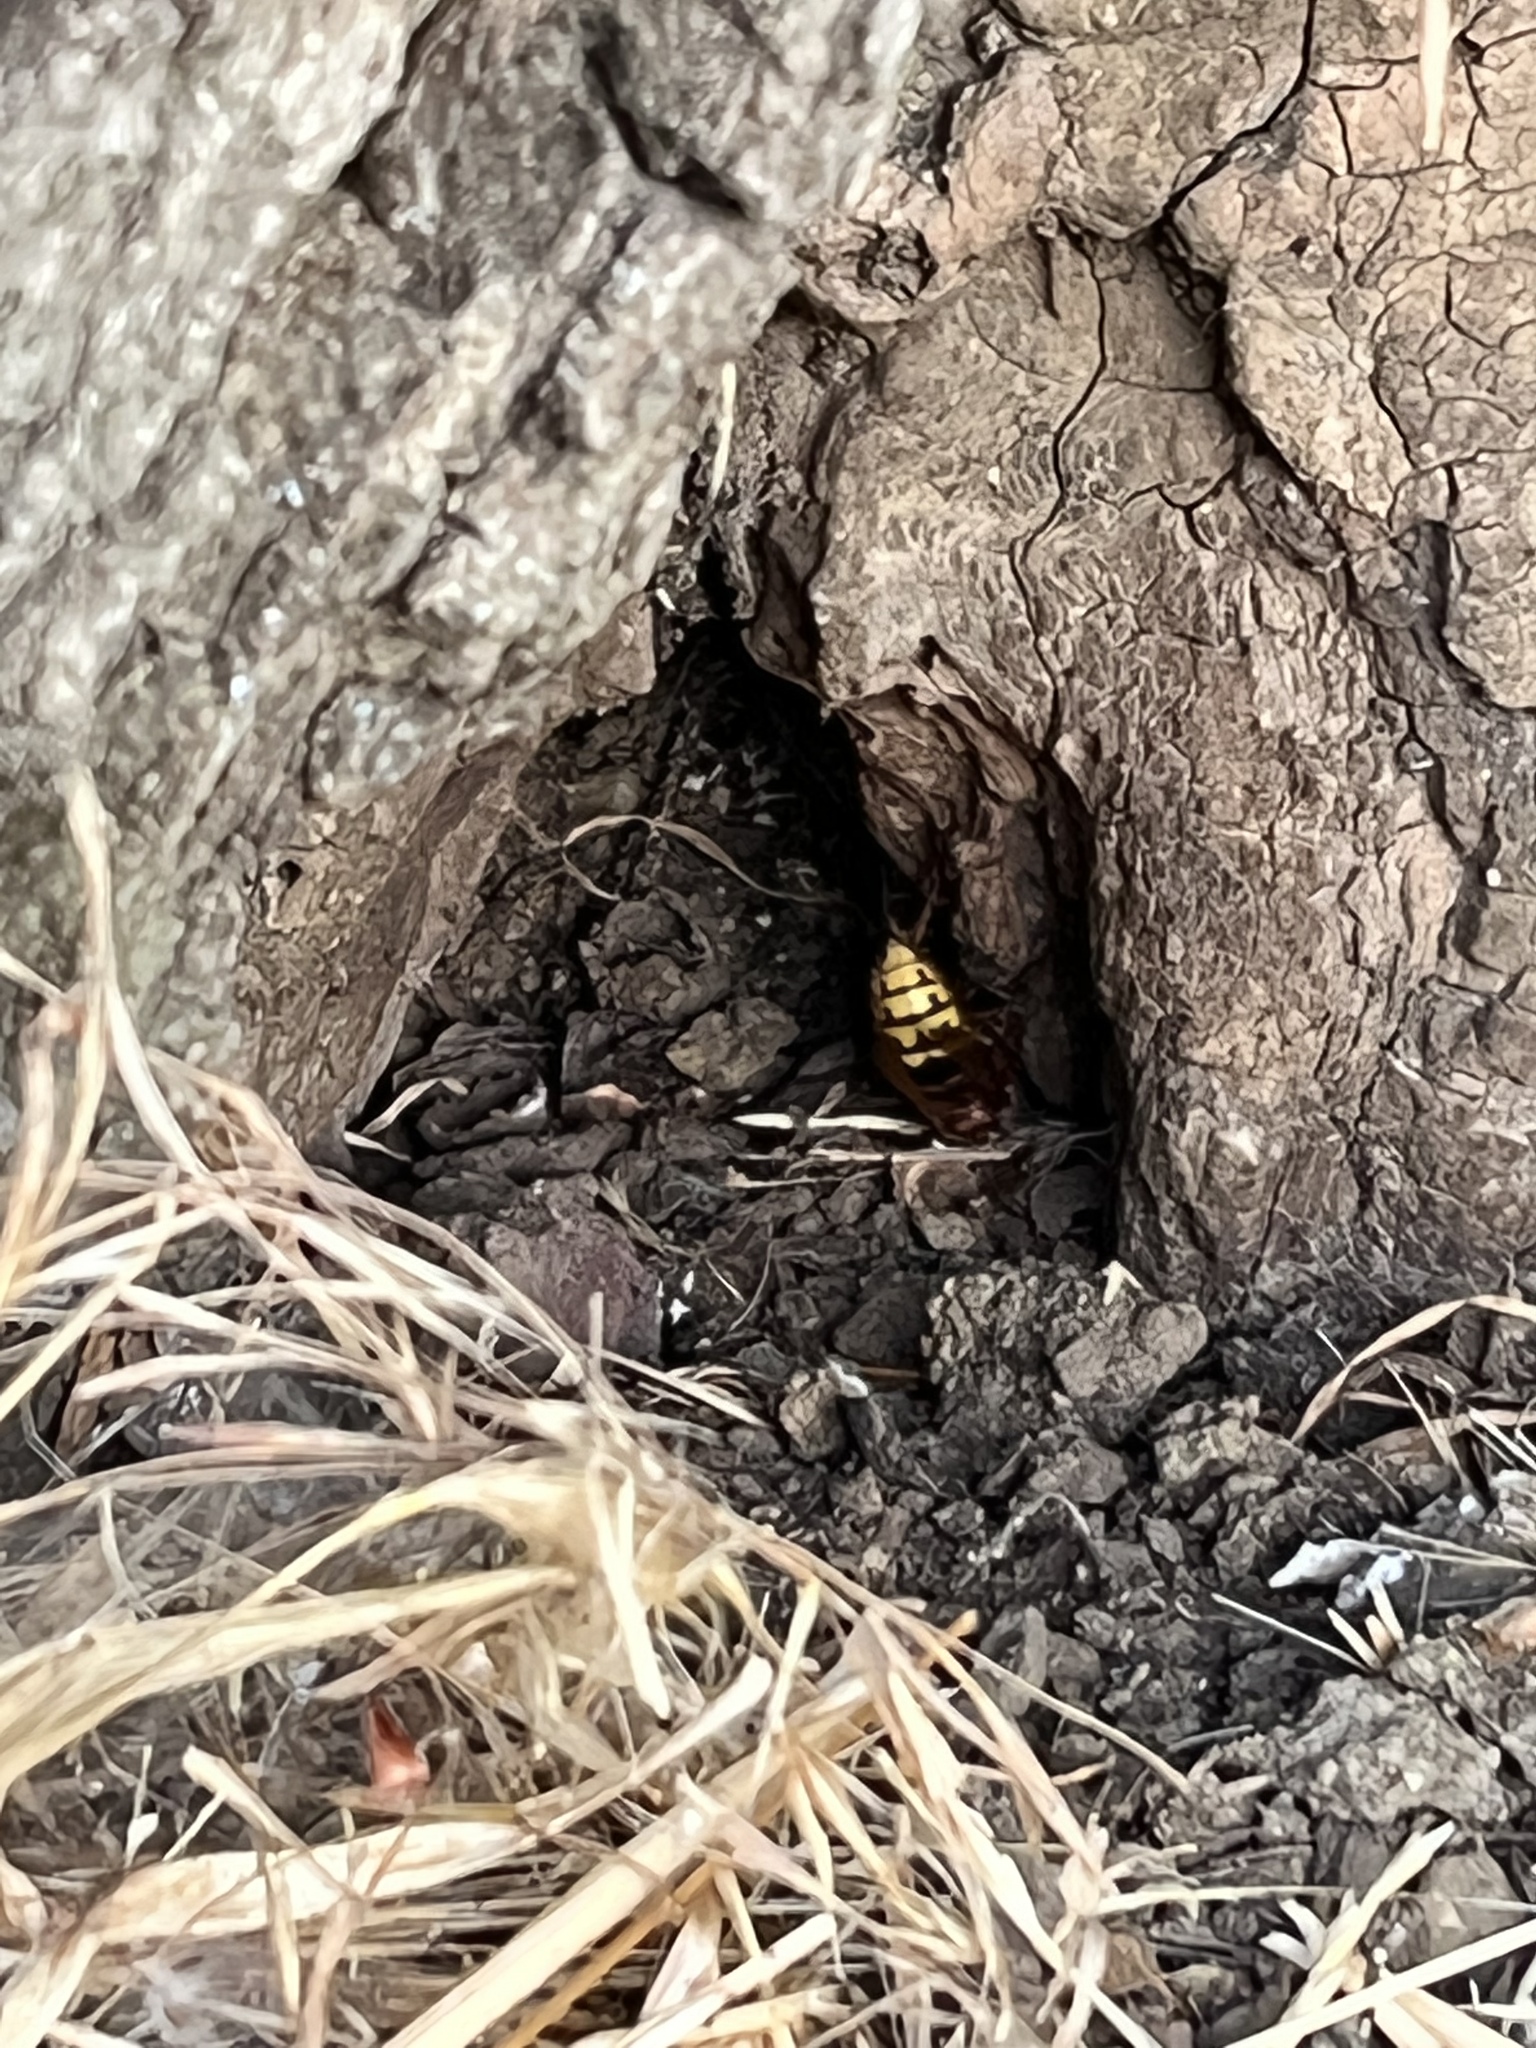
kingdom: Animalia
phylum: Arthropoda
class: Insecta
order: Hymenoptera
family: Vespidae
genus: Vespa
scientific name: Vespa crabro
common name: Hornet
